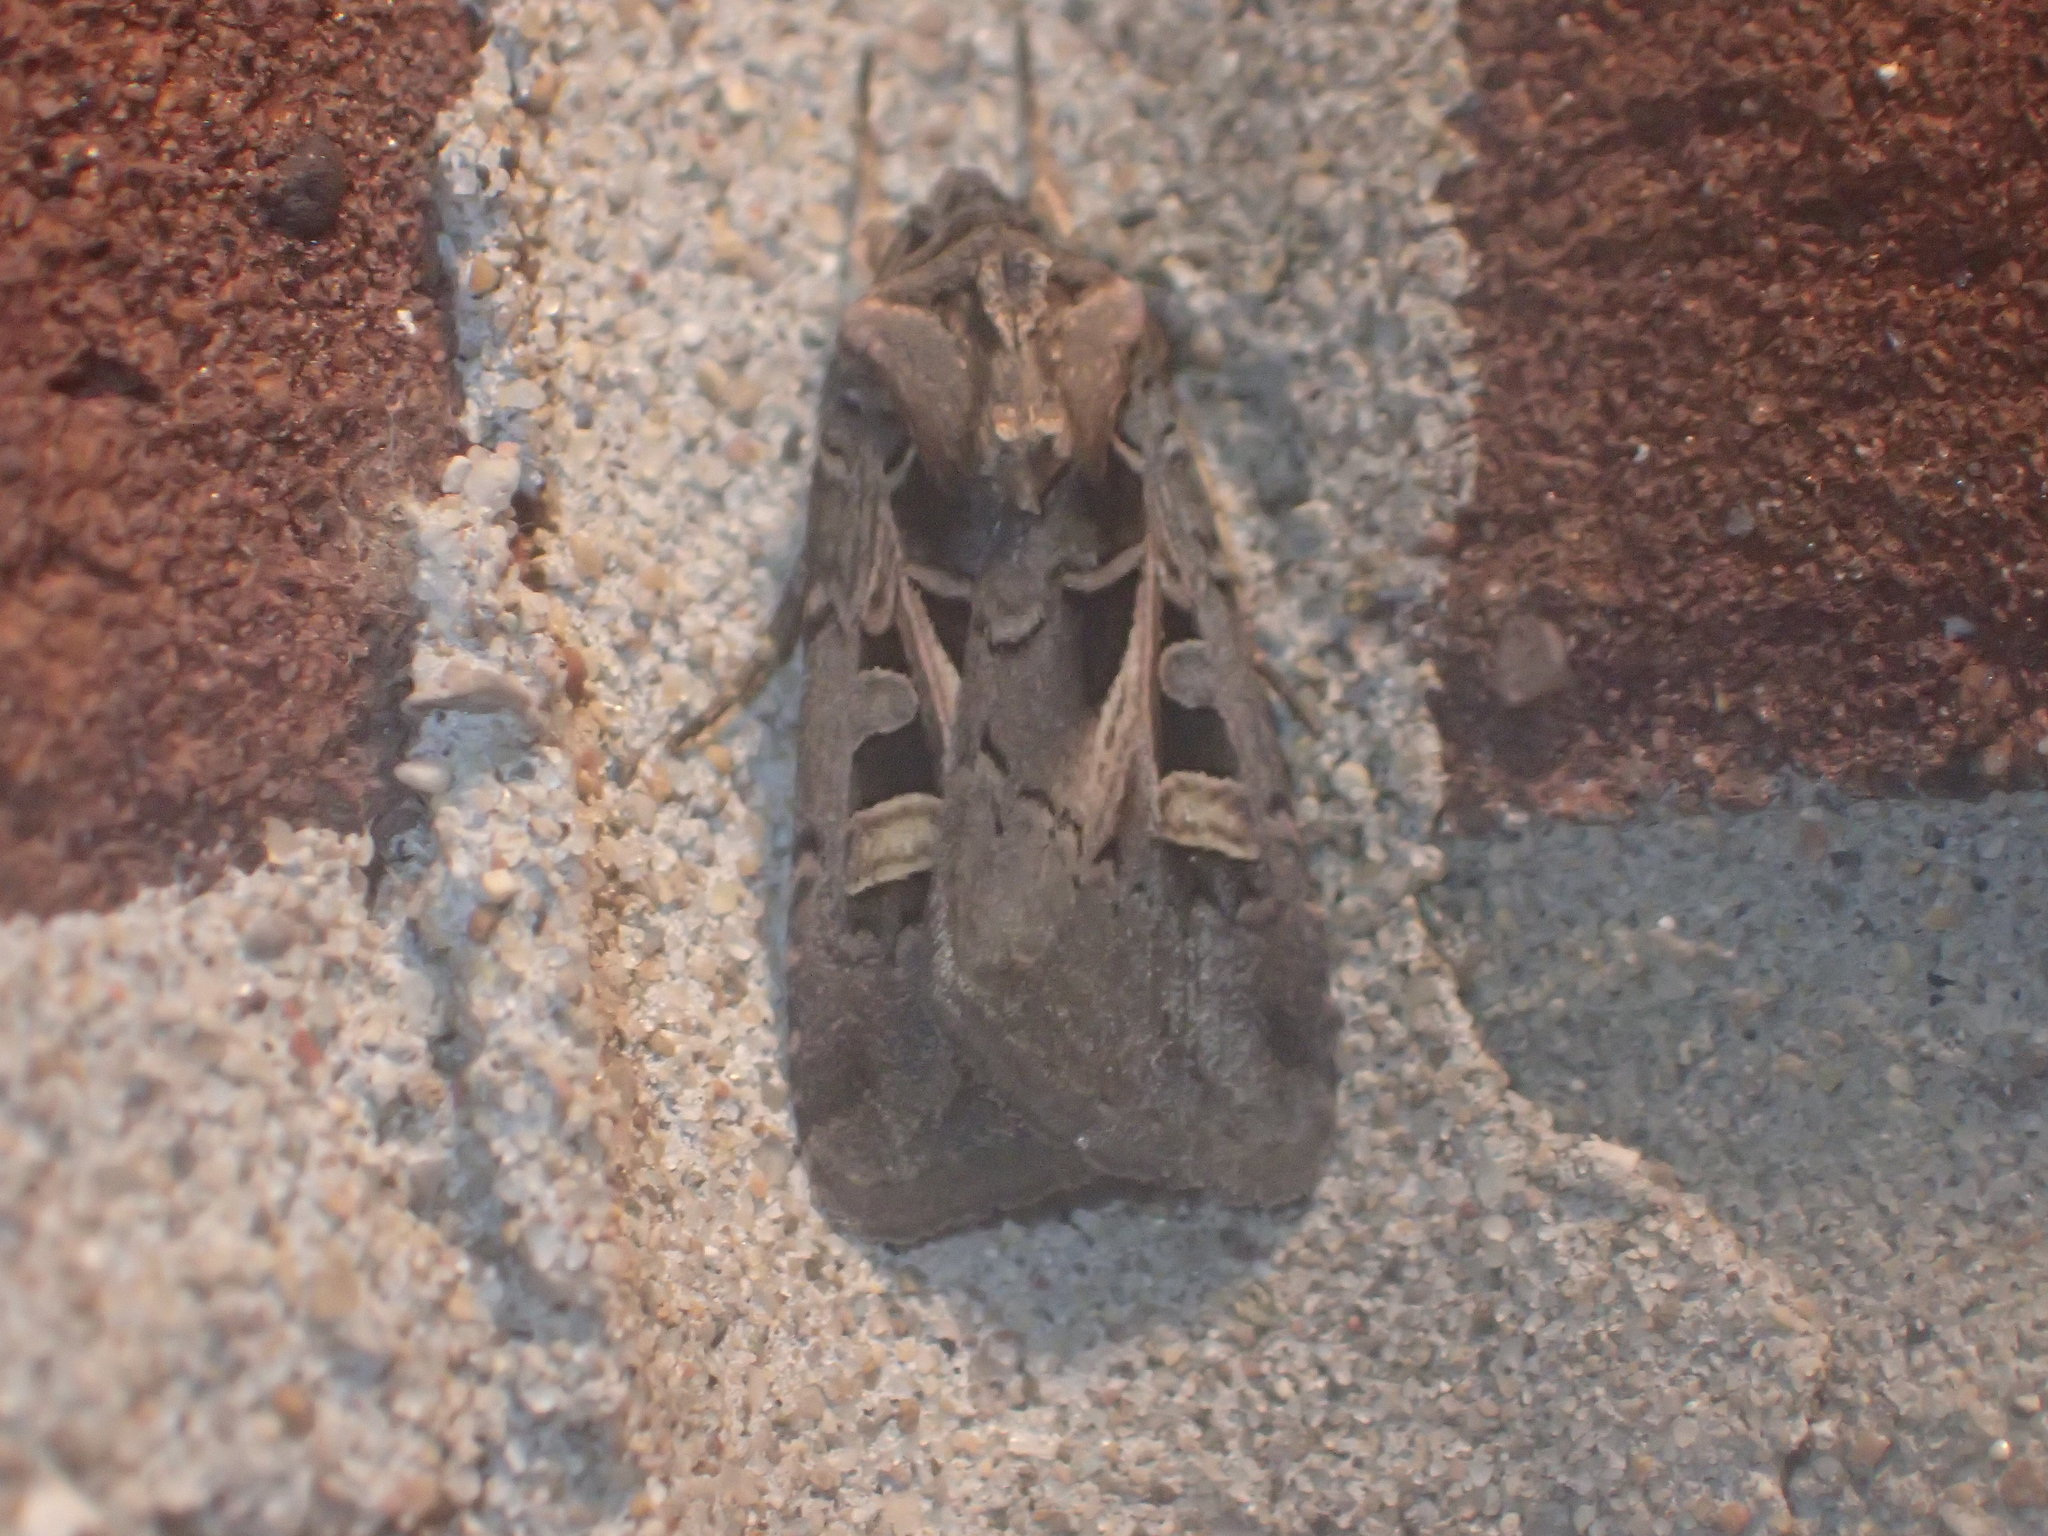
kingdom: Animalia
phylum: Arthropoda
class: Insecta
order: Lepidoptera
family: Noctuidae
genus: Feltia
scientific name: Feltia herilis
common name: Master's dart
